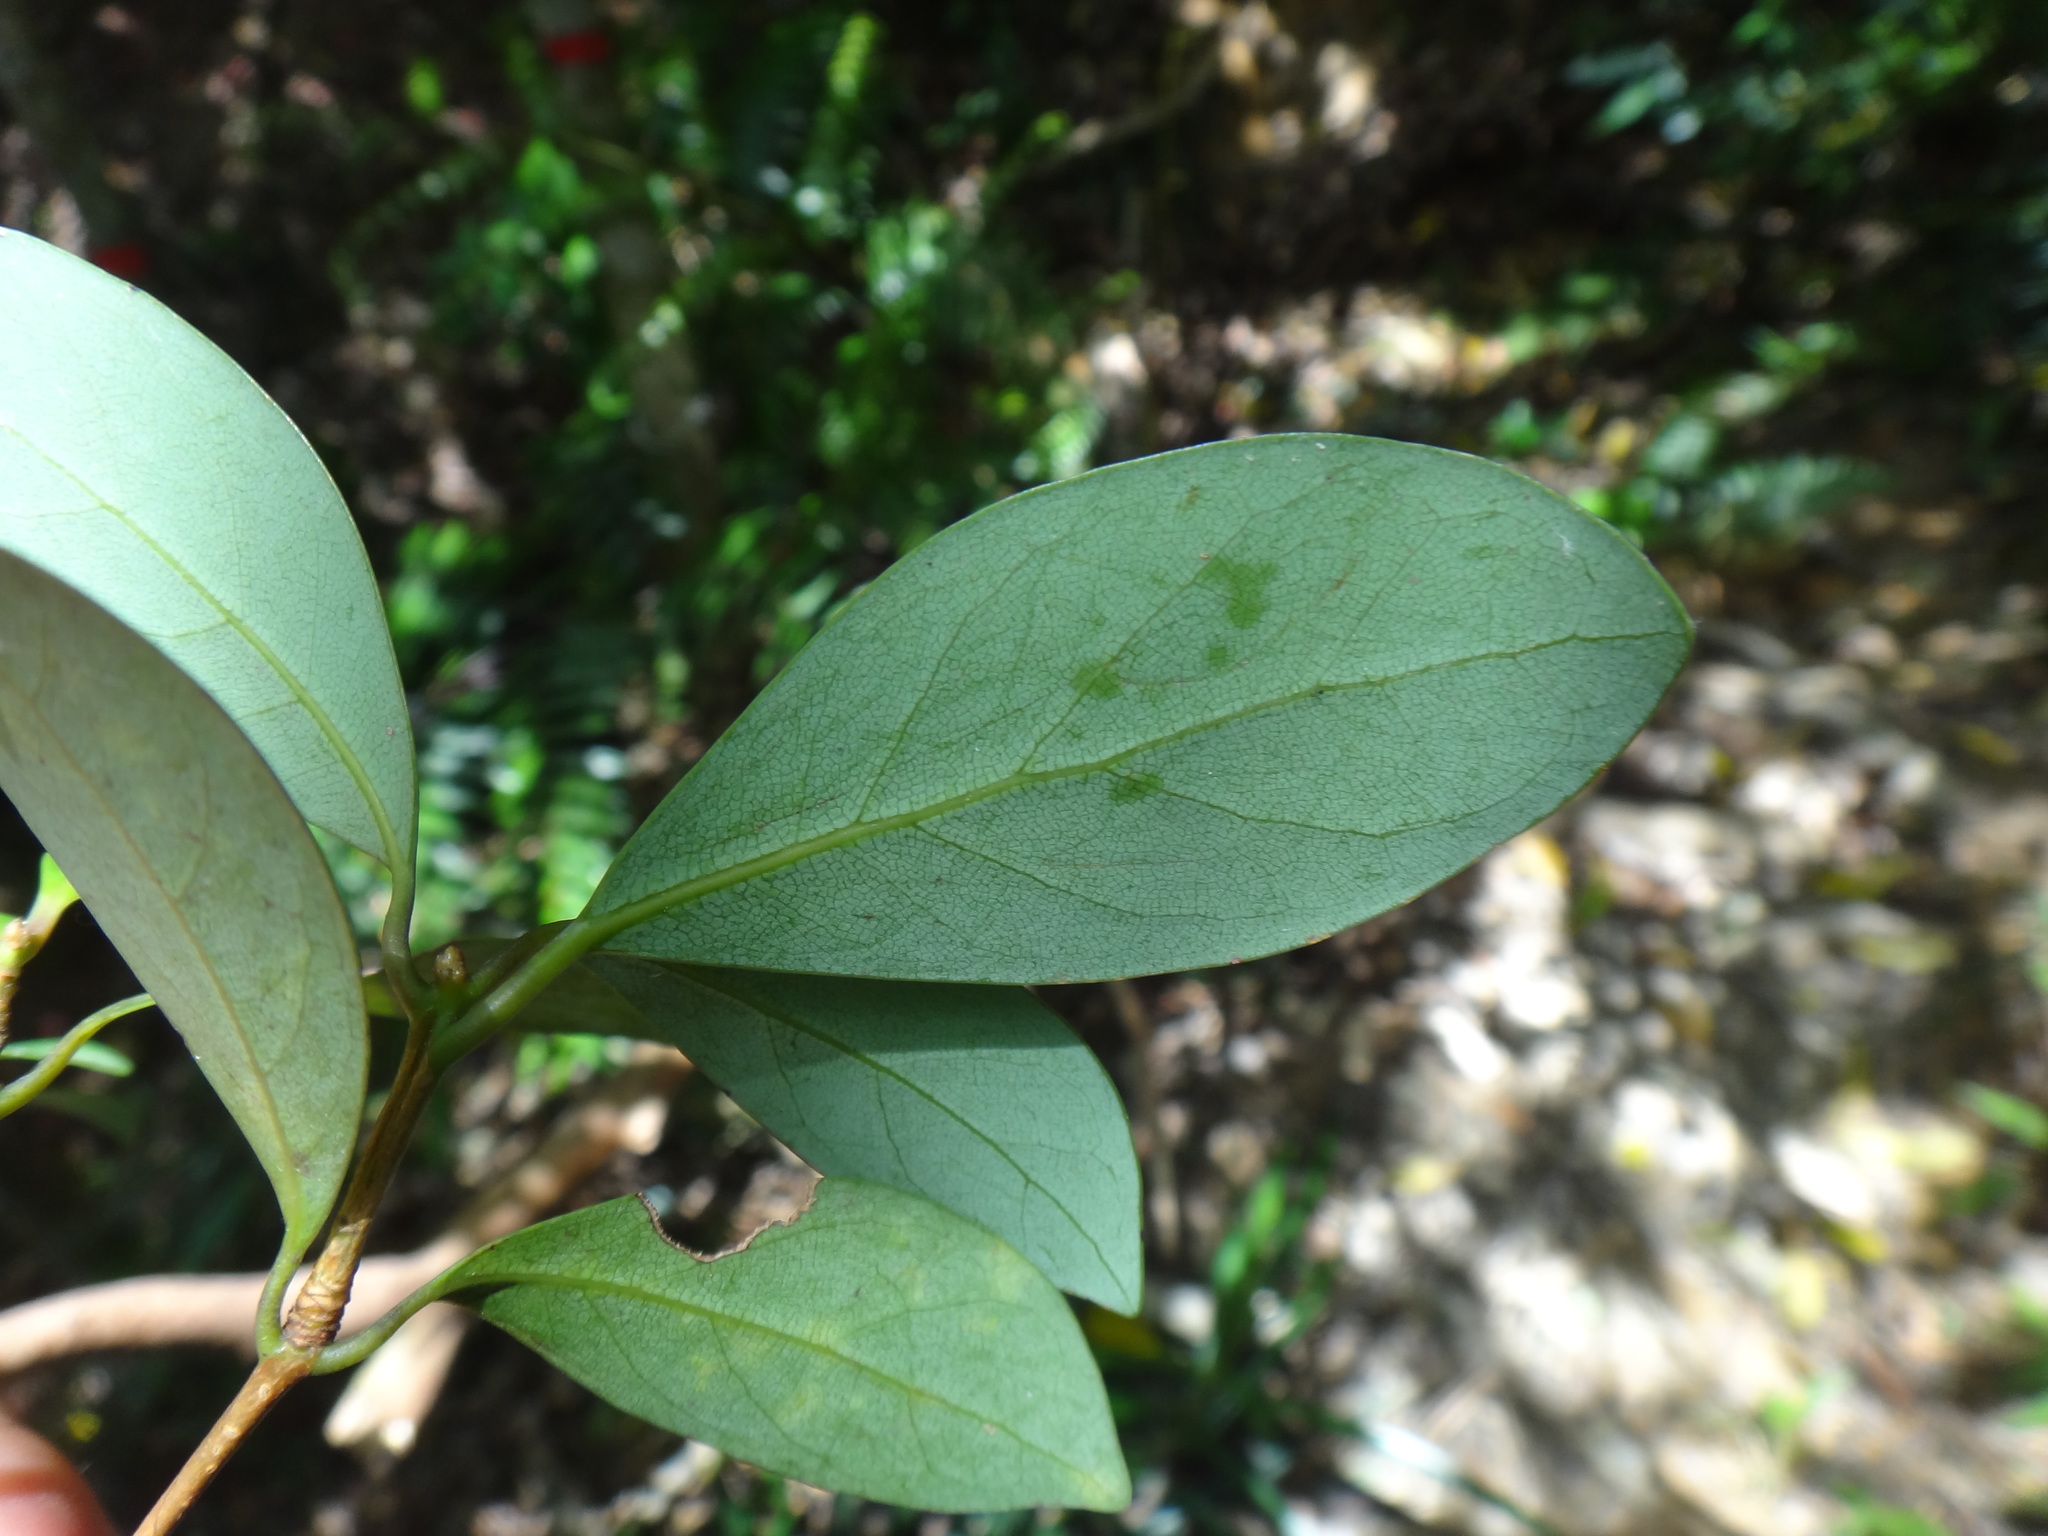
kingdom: Plantae
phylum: Tracheophyta
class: Magnoliopsida
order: Laurales
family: Lauraceae
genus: Machilus
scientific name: Machilus obovatifolia
